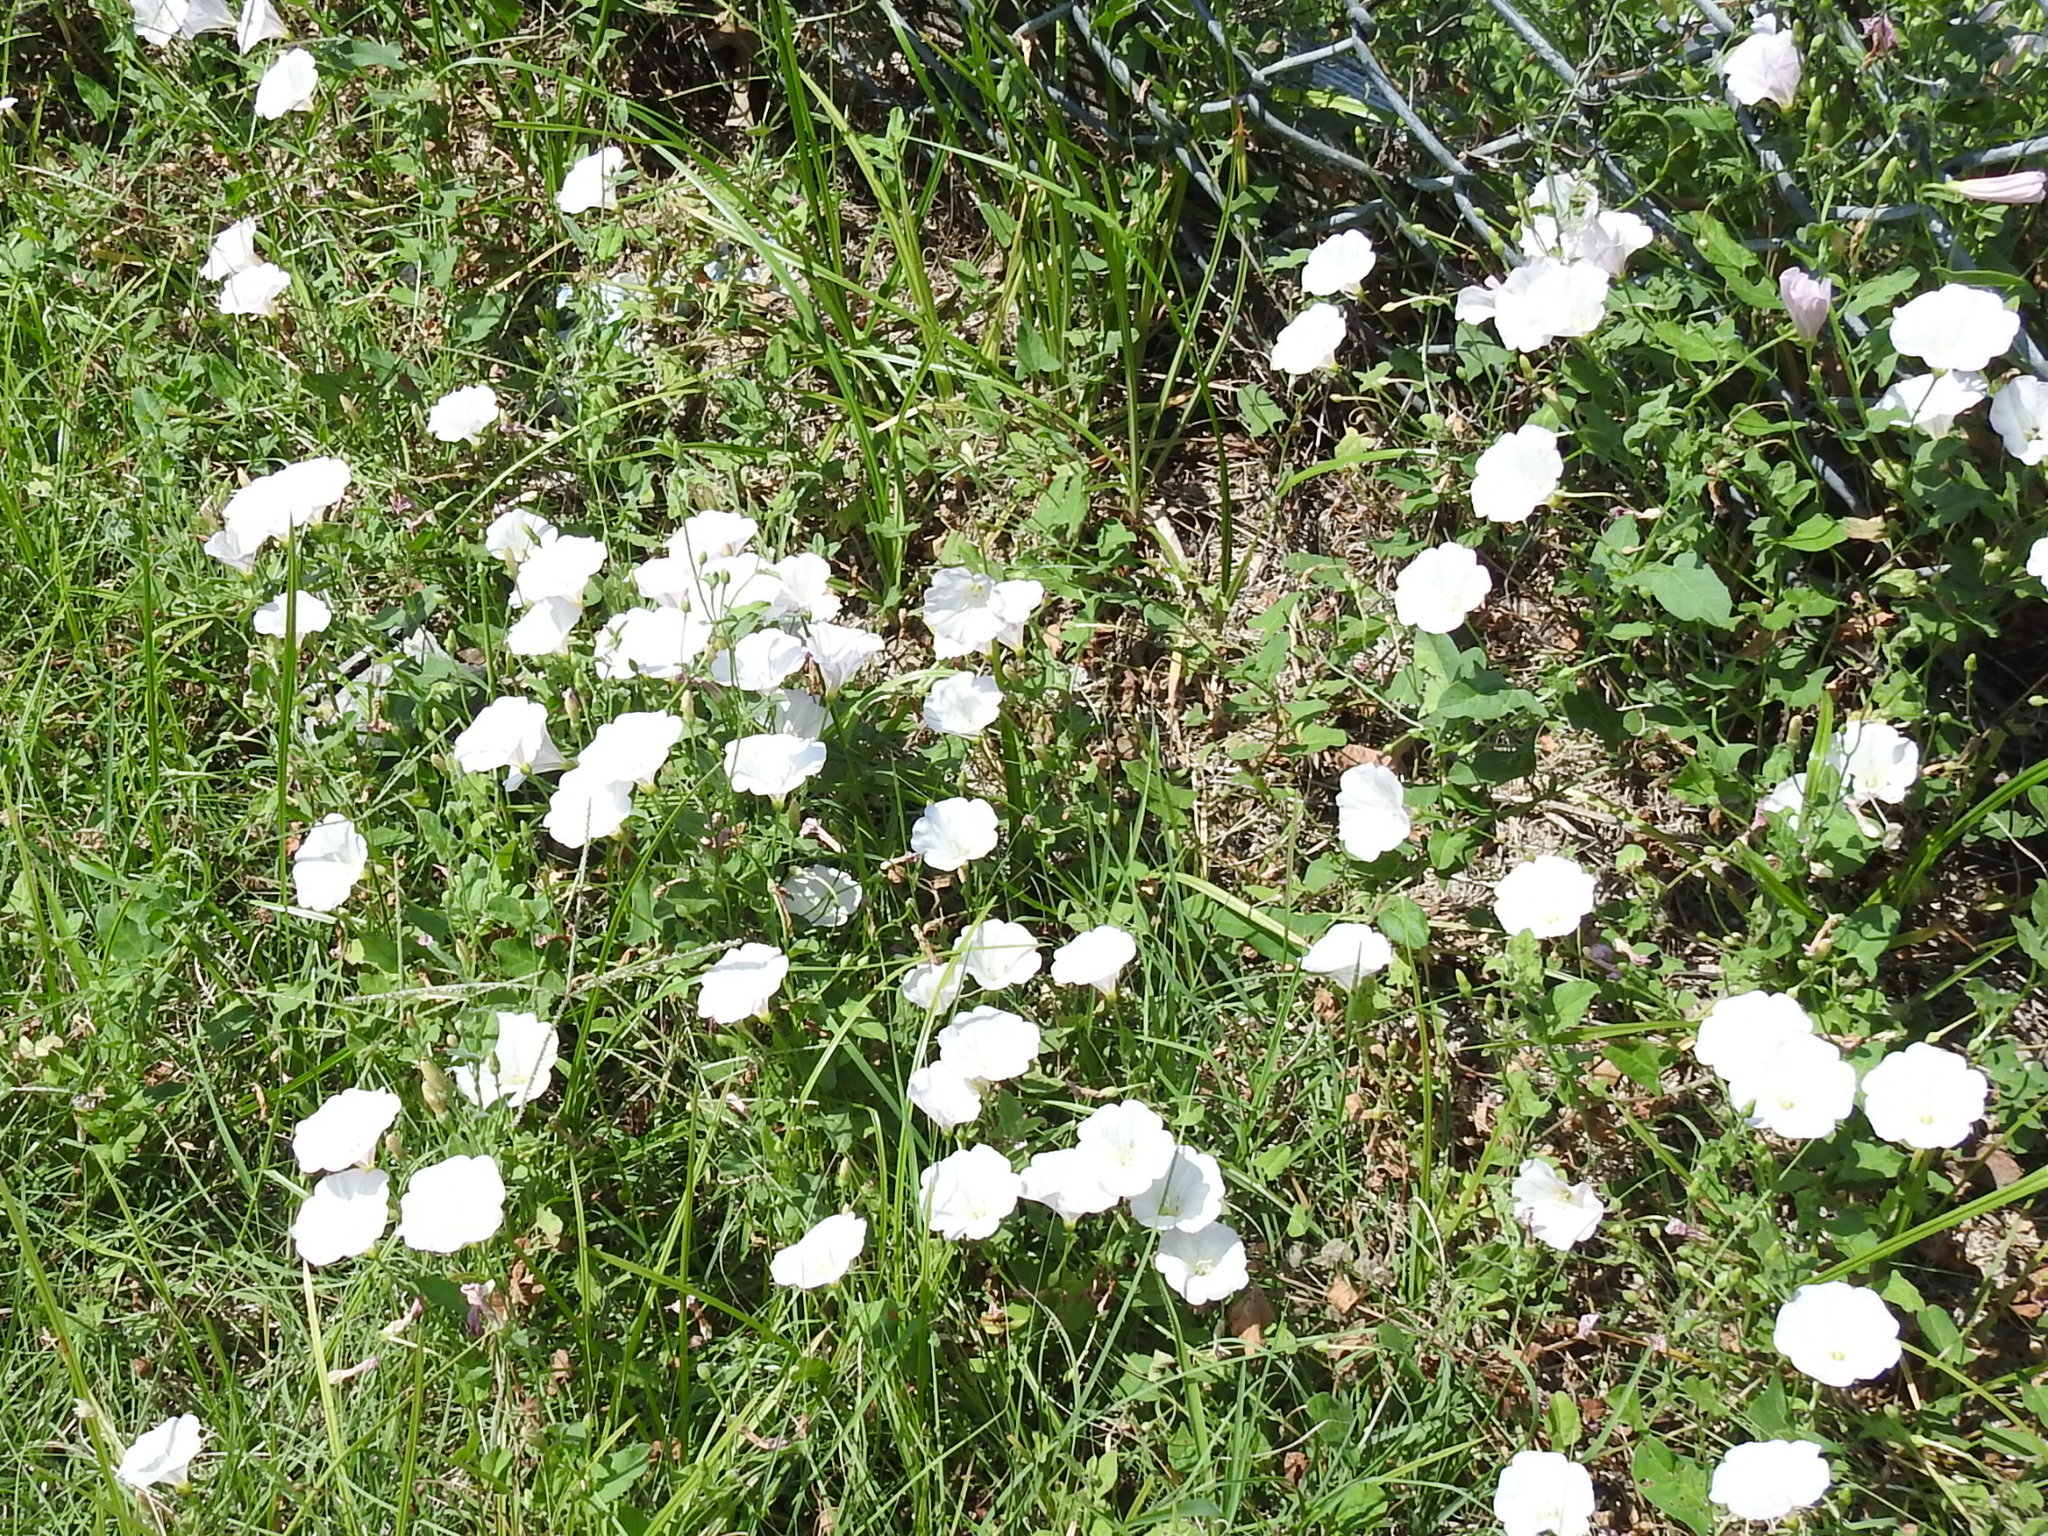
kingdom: Plantae
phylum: Tracheophyta
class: Magnoliopsida
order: Solanales
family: Convolvulaceae
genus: Convolvulus
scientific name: Convolvulus arvensis
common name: Field bindweed
